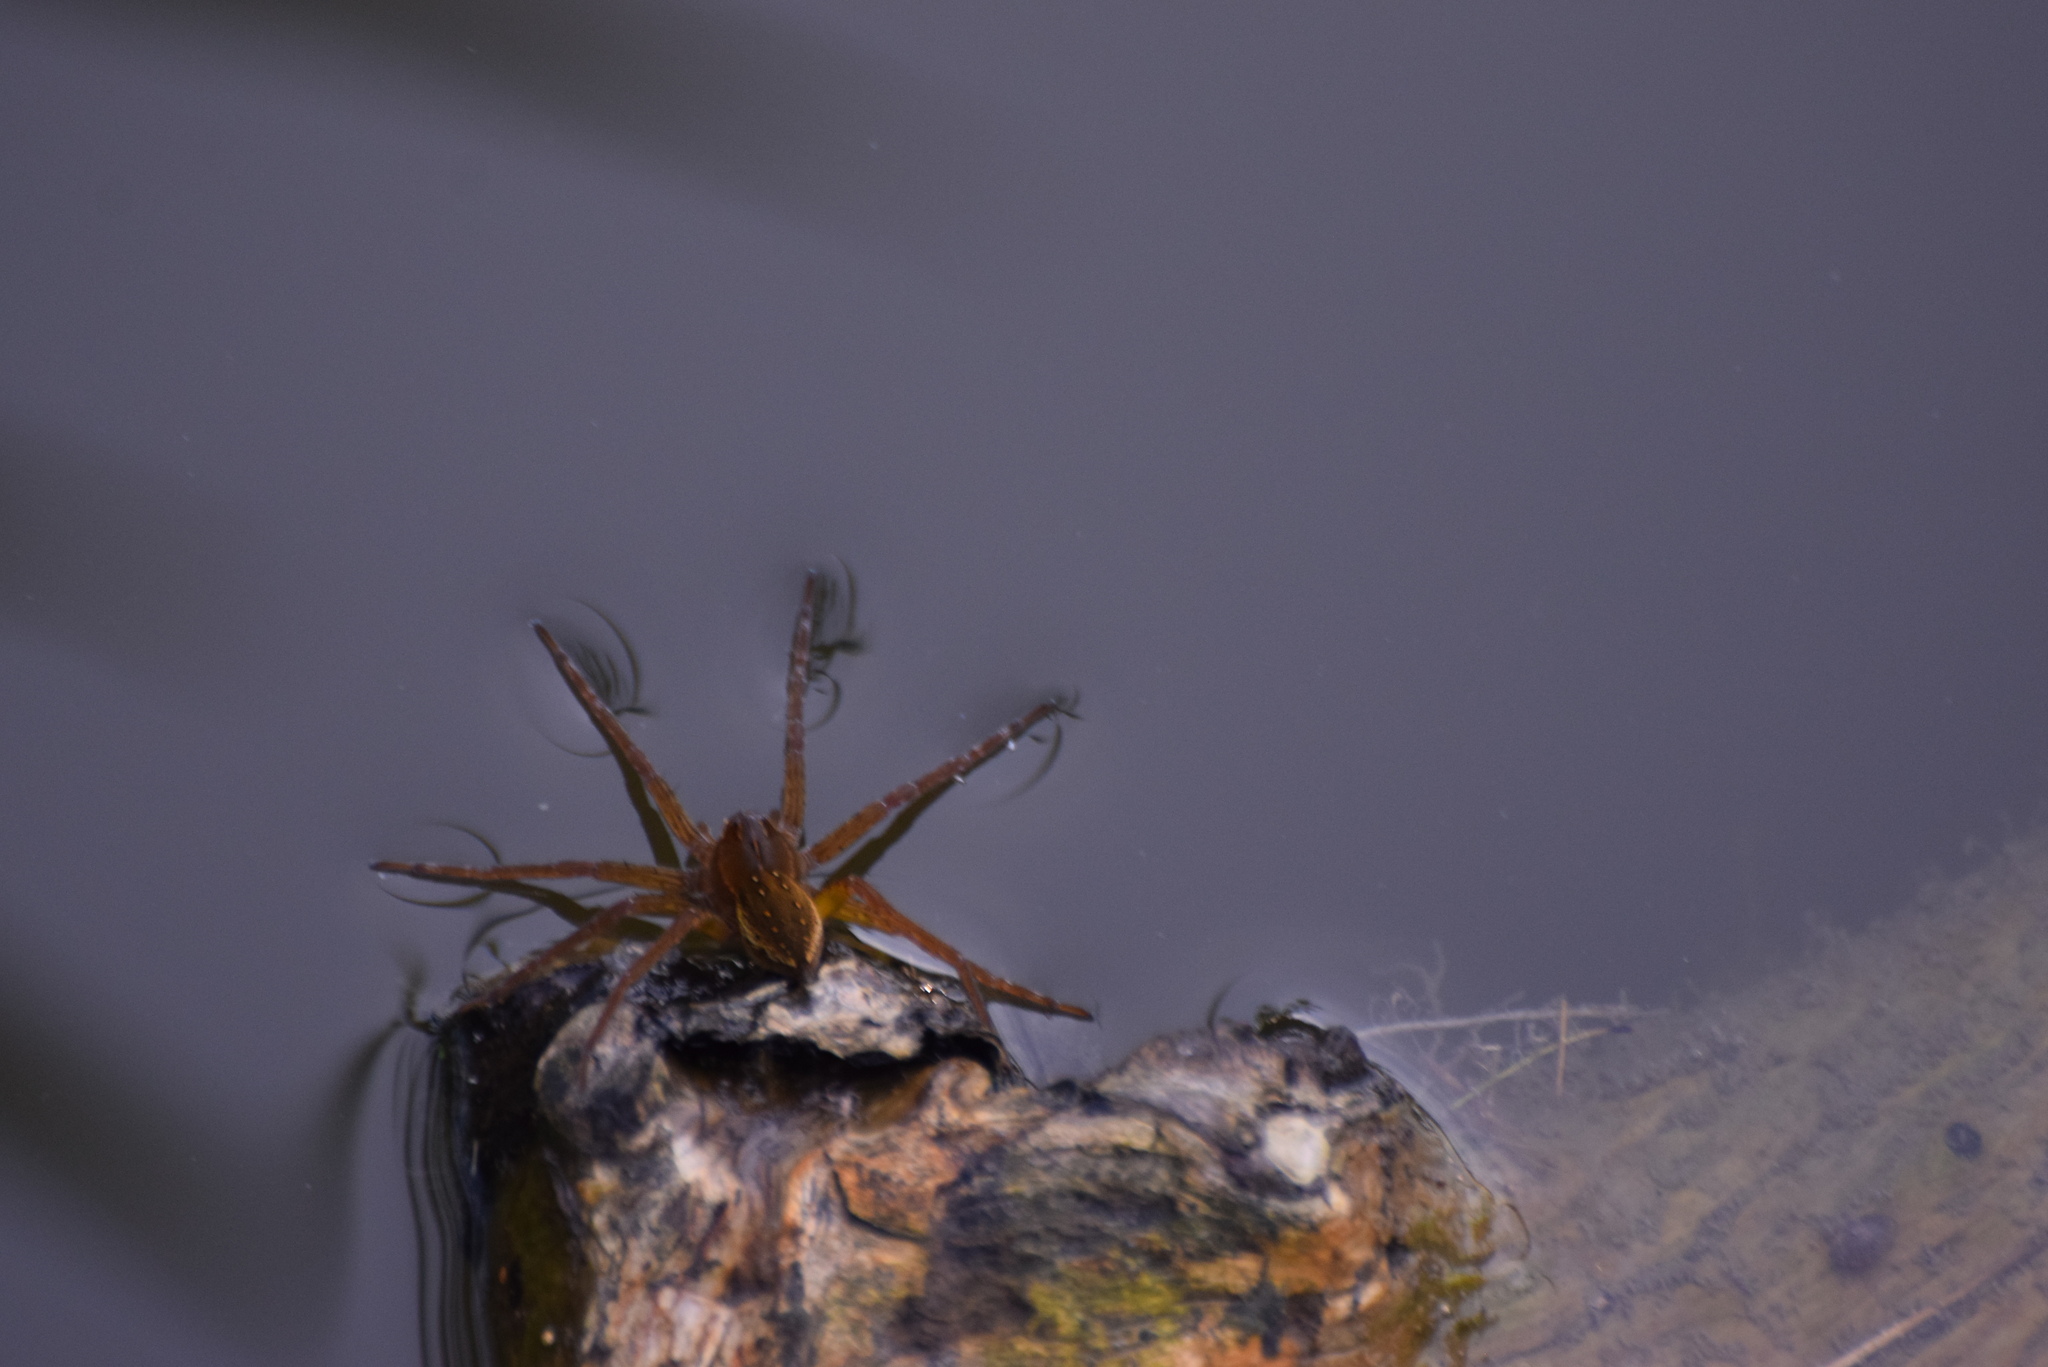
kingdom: Animalia
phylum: Arthropoda
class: Arachnida
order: Araneae
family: Pisauridae
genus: Dolomedes
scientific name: Dolomedes triton
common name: Six-spotted fishing spider
